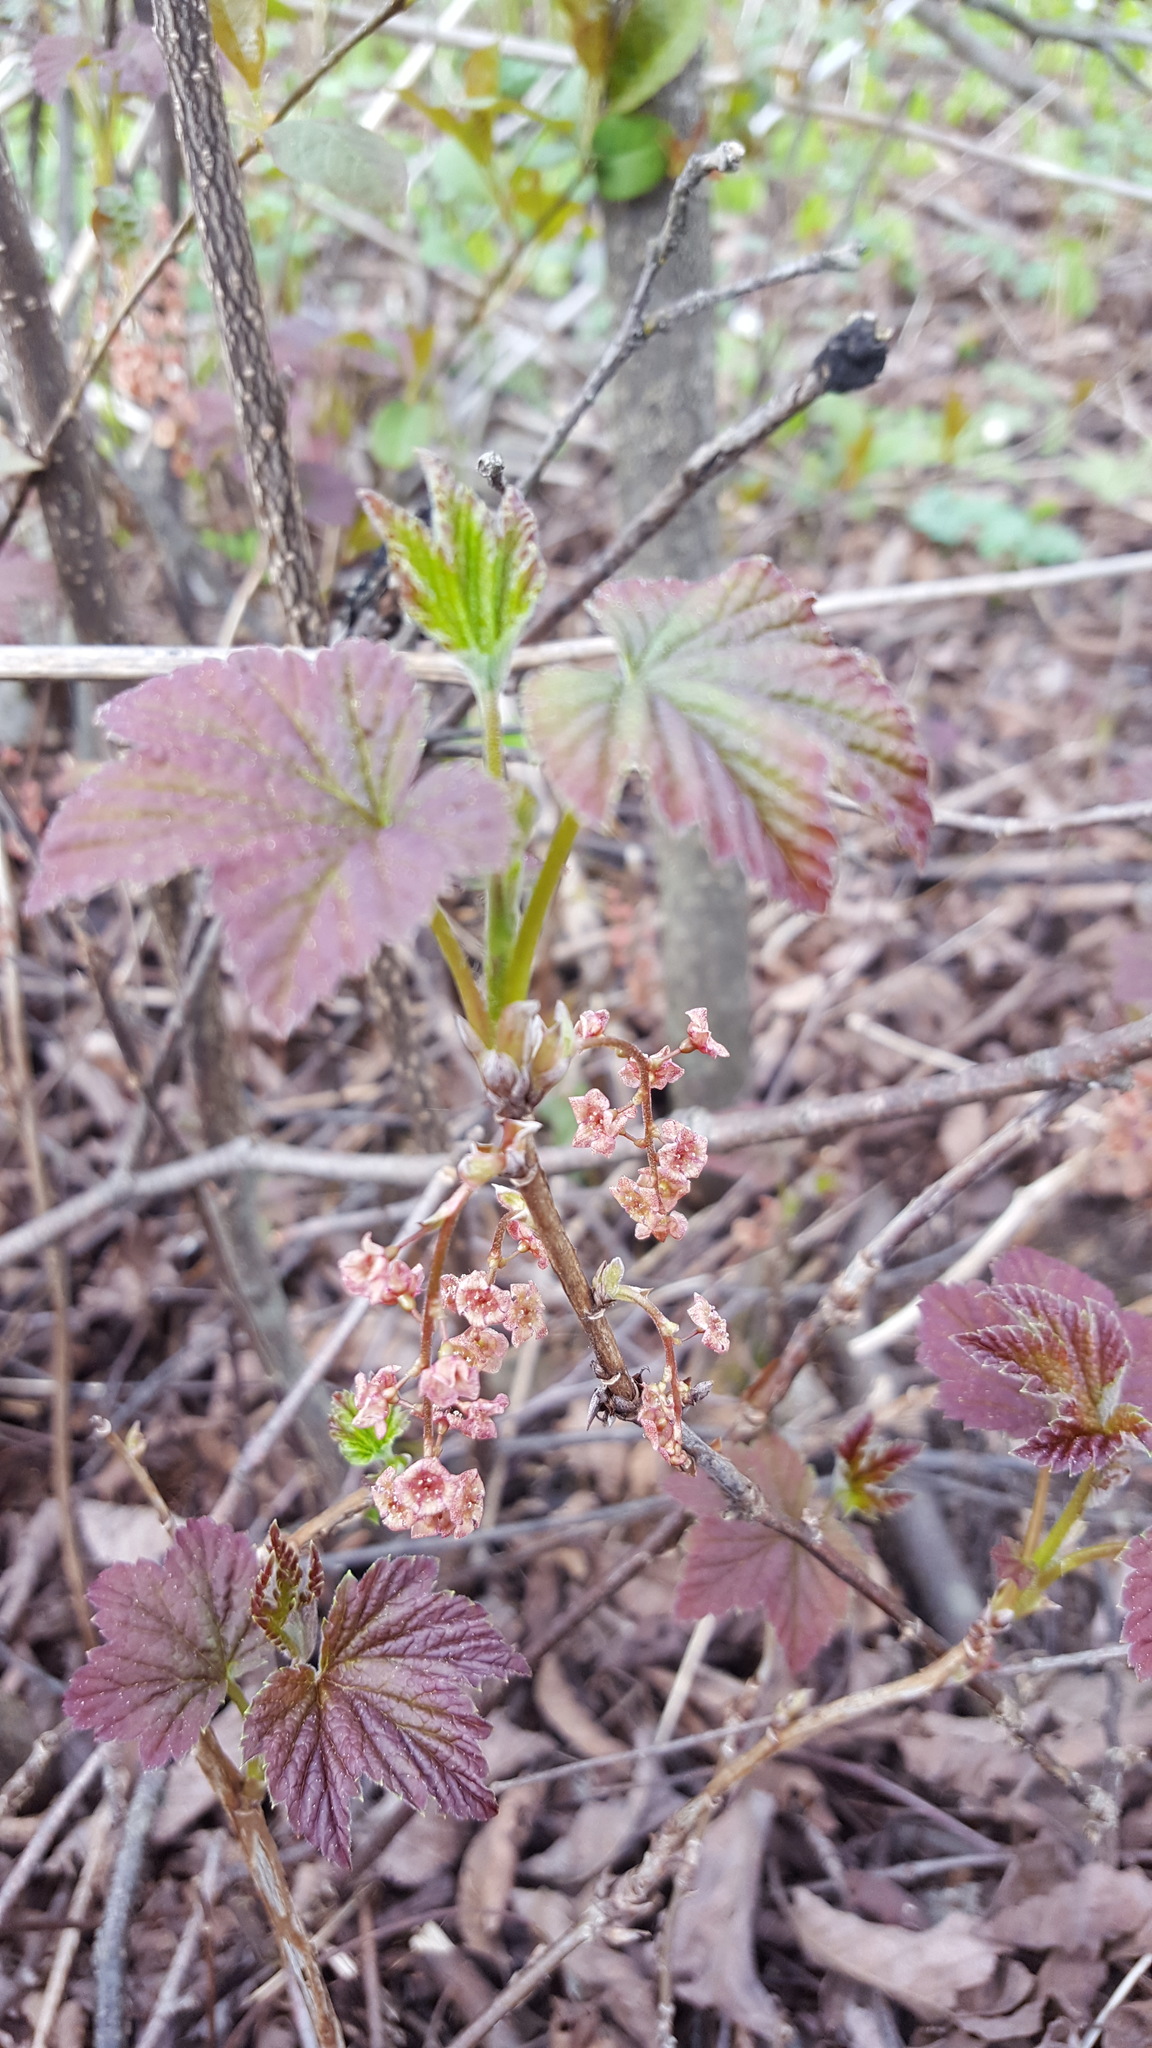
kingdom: Plantae
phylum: Tracheophyta
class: Magnoliopsida
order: Saxifragales
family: Grossulariaceae
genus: Ribes
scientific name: Ribes triste
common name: Swamp red currant
